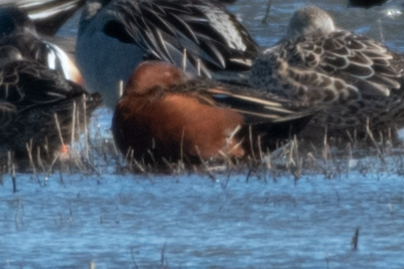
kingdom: Animalia
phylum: Chordata
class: Aves
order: Anseriformes
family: Anatidae
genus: Spatula
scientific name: Spatula cyanoptera
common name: Cinnamon teal
